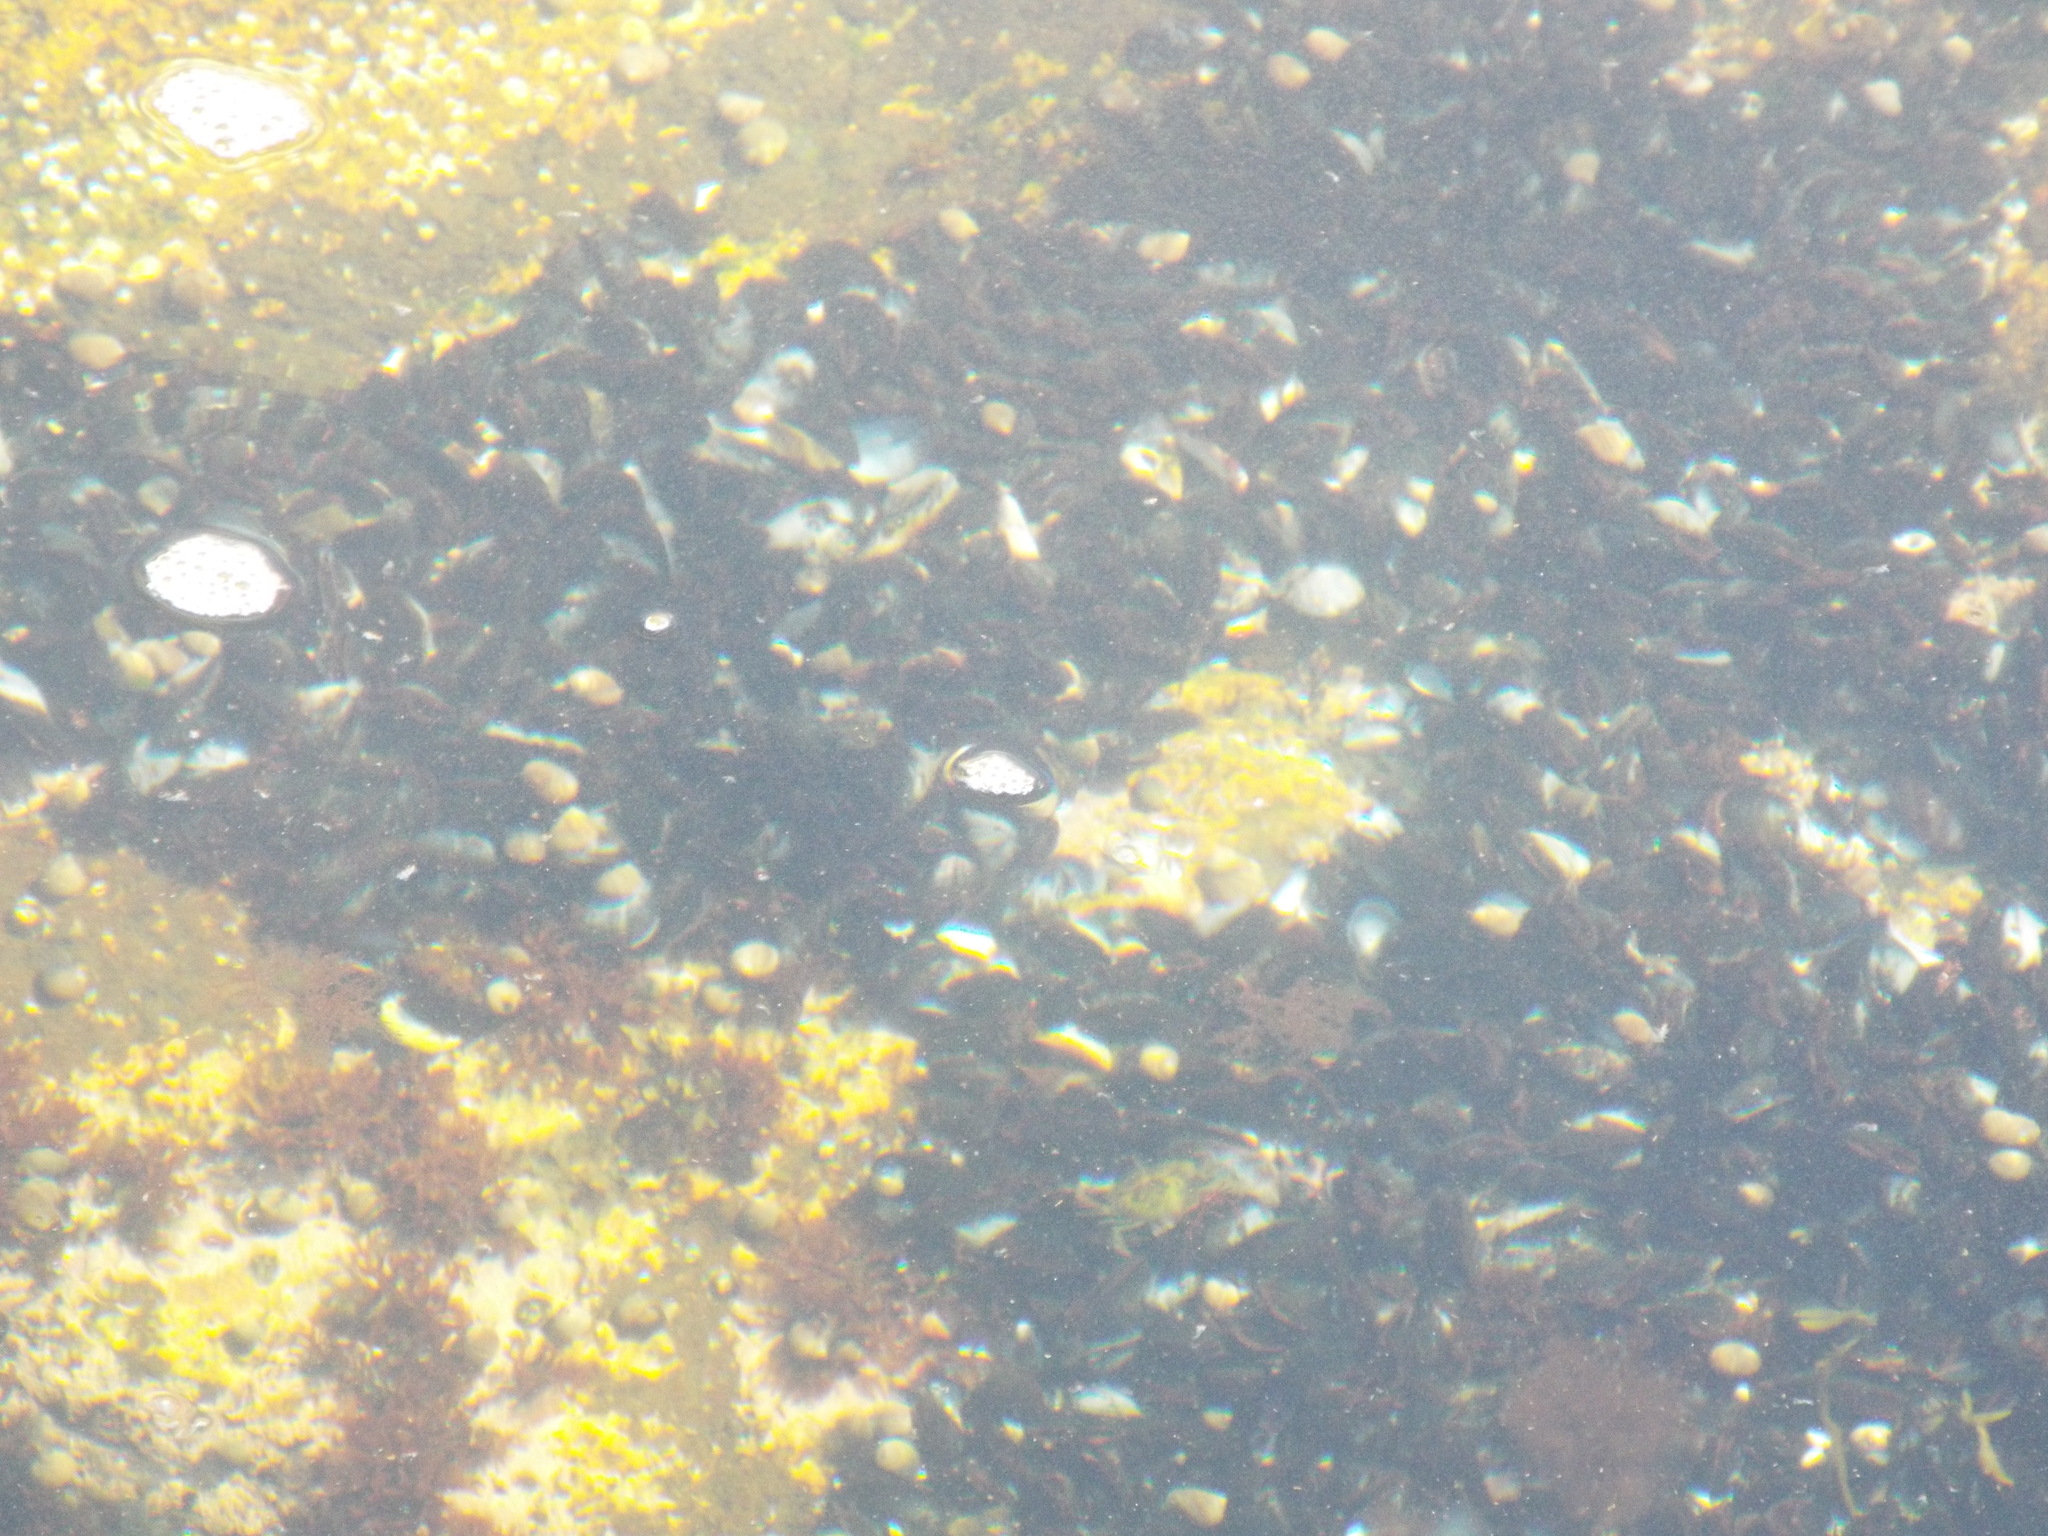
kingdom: Animalia
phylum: Mollusca
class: Bivalvia
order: Mytilida
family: Mytilidae
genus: Mytilus
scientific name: Mytilus edulis
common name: Blue mussel
